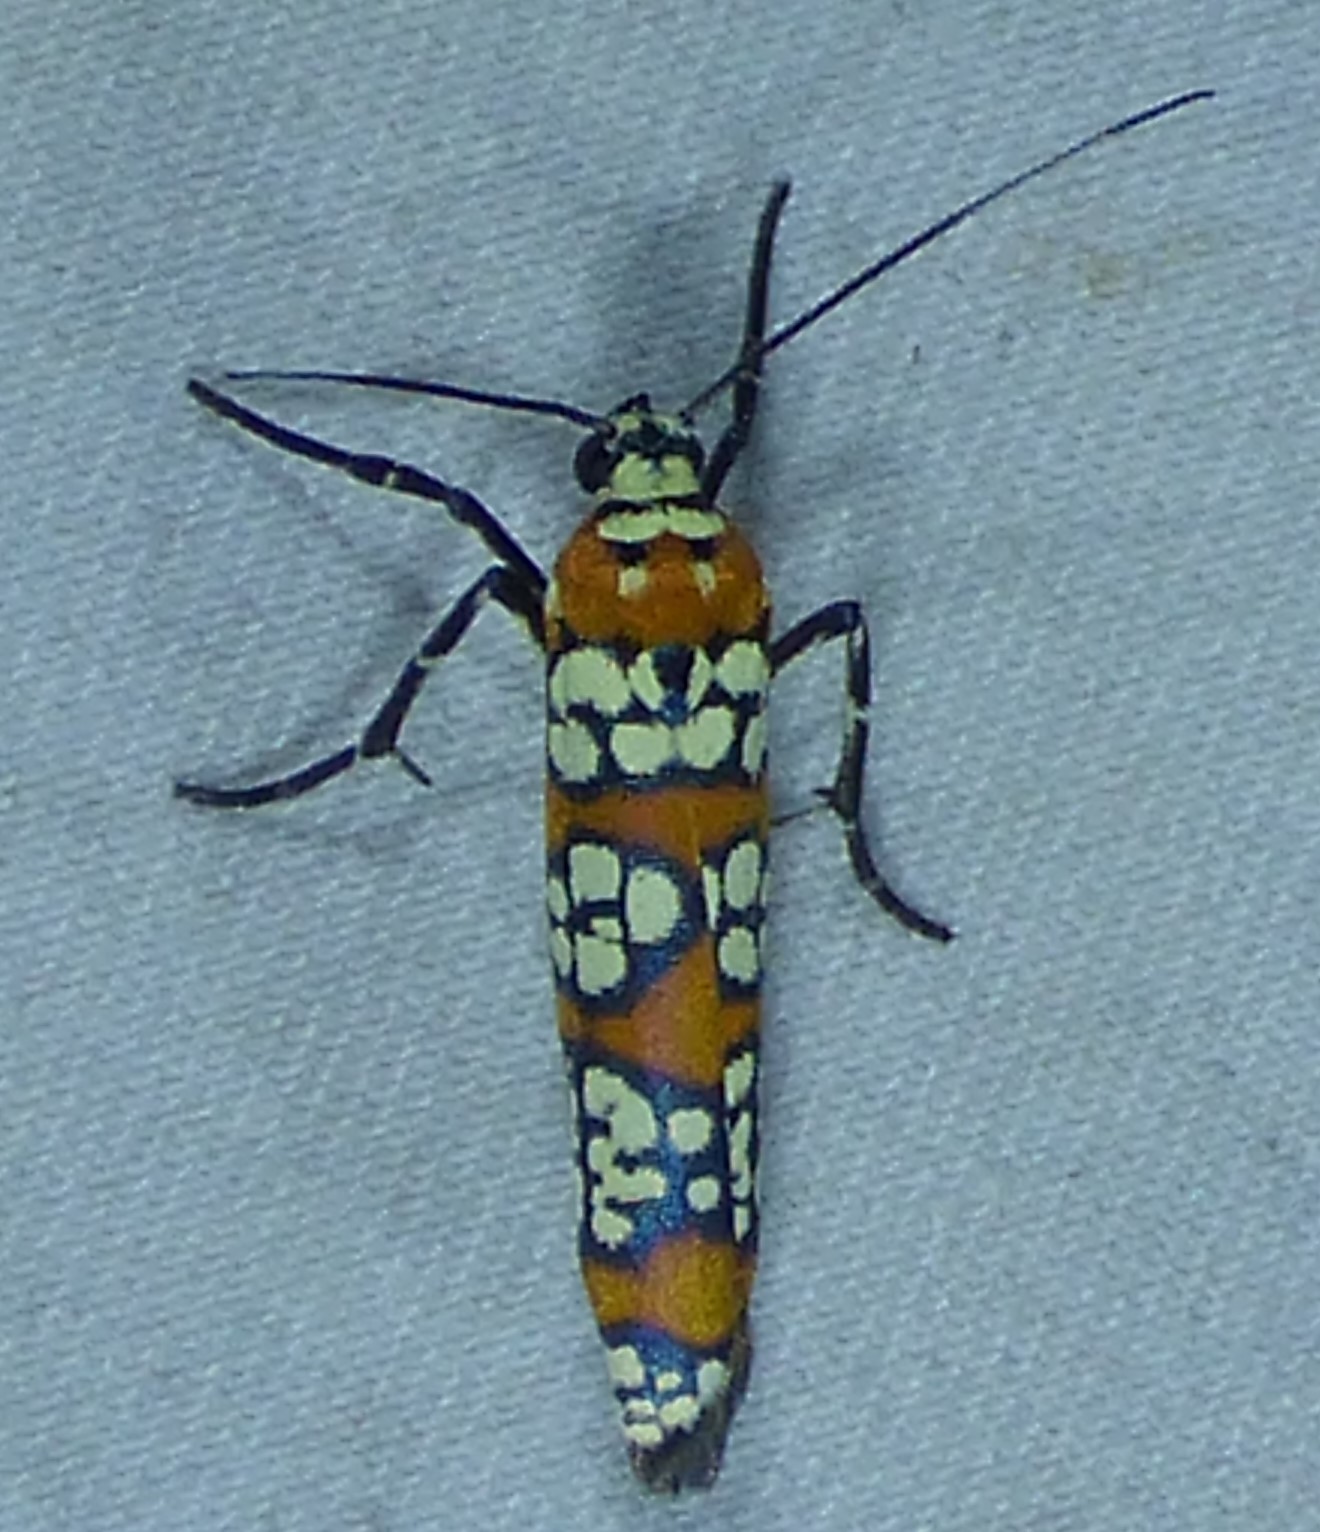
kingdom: Animalia
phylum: Arthropoda
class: Insecta
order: Lepidoptera
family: Attevidae
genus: Atteva
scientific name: Atteva punctella
